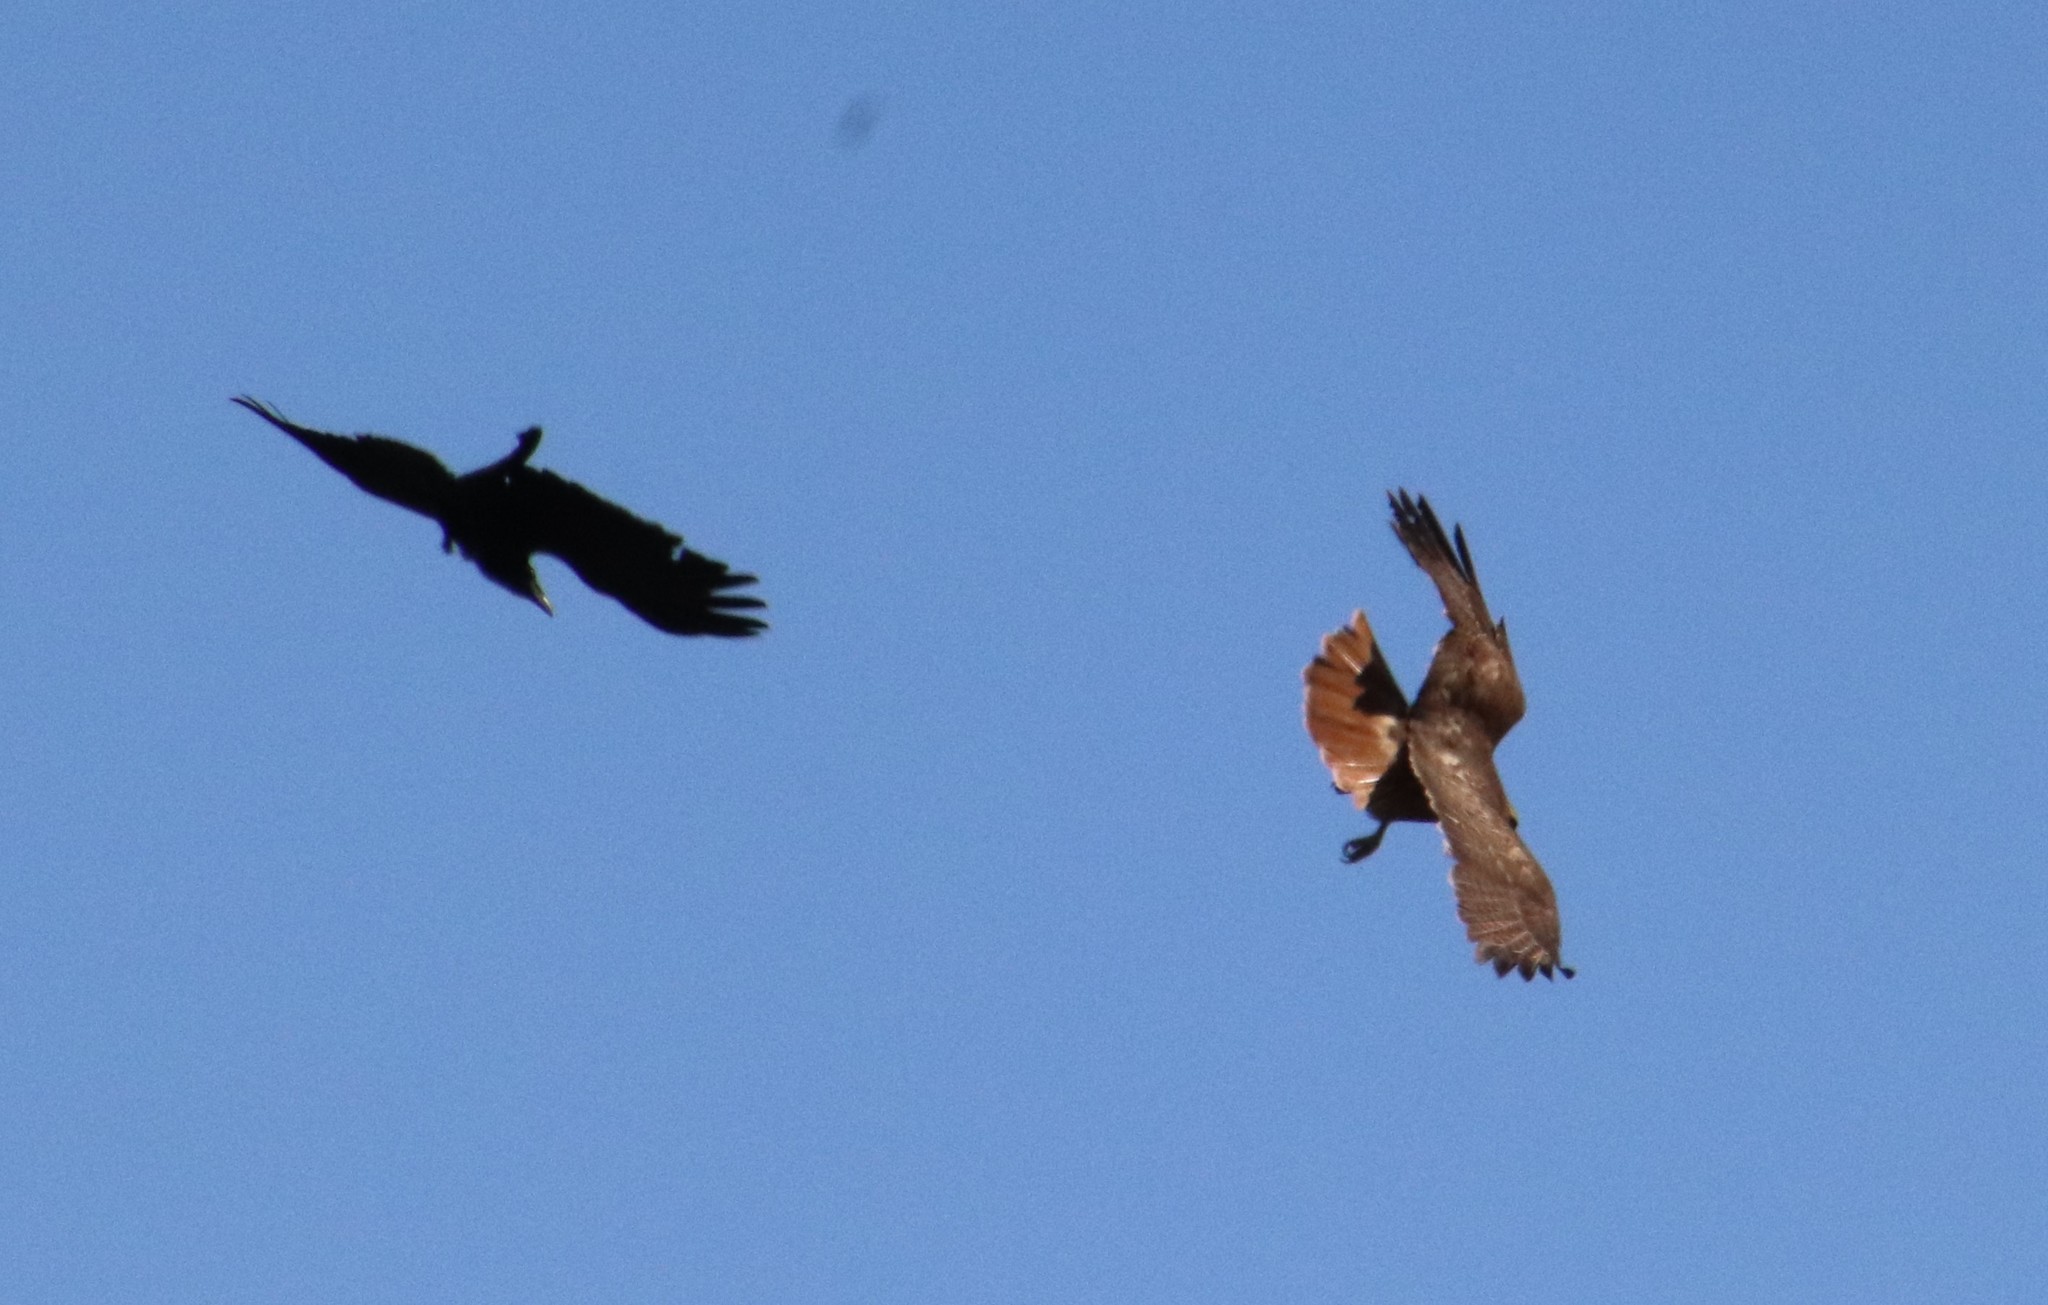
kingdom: Animalia
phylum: Chordata
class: Aves
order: Accipitriformes
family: Accipitridae
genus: Buteo
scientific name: Buteo jamaicensis
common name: Red-tailed hawk
